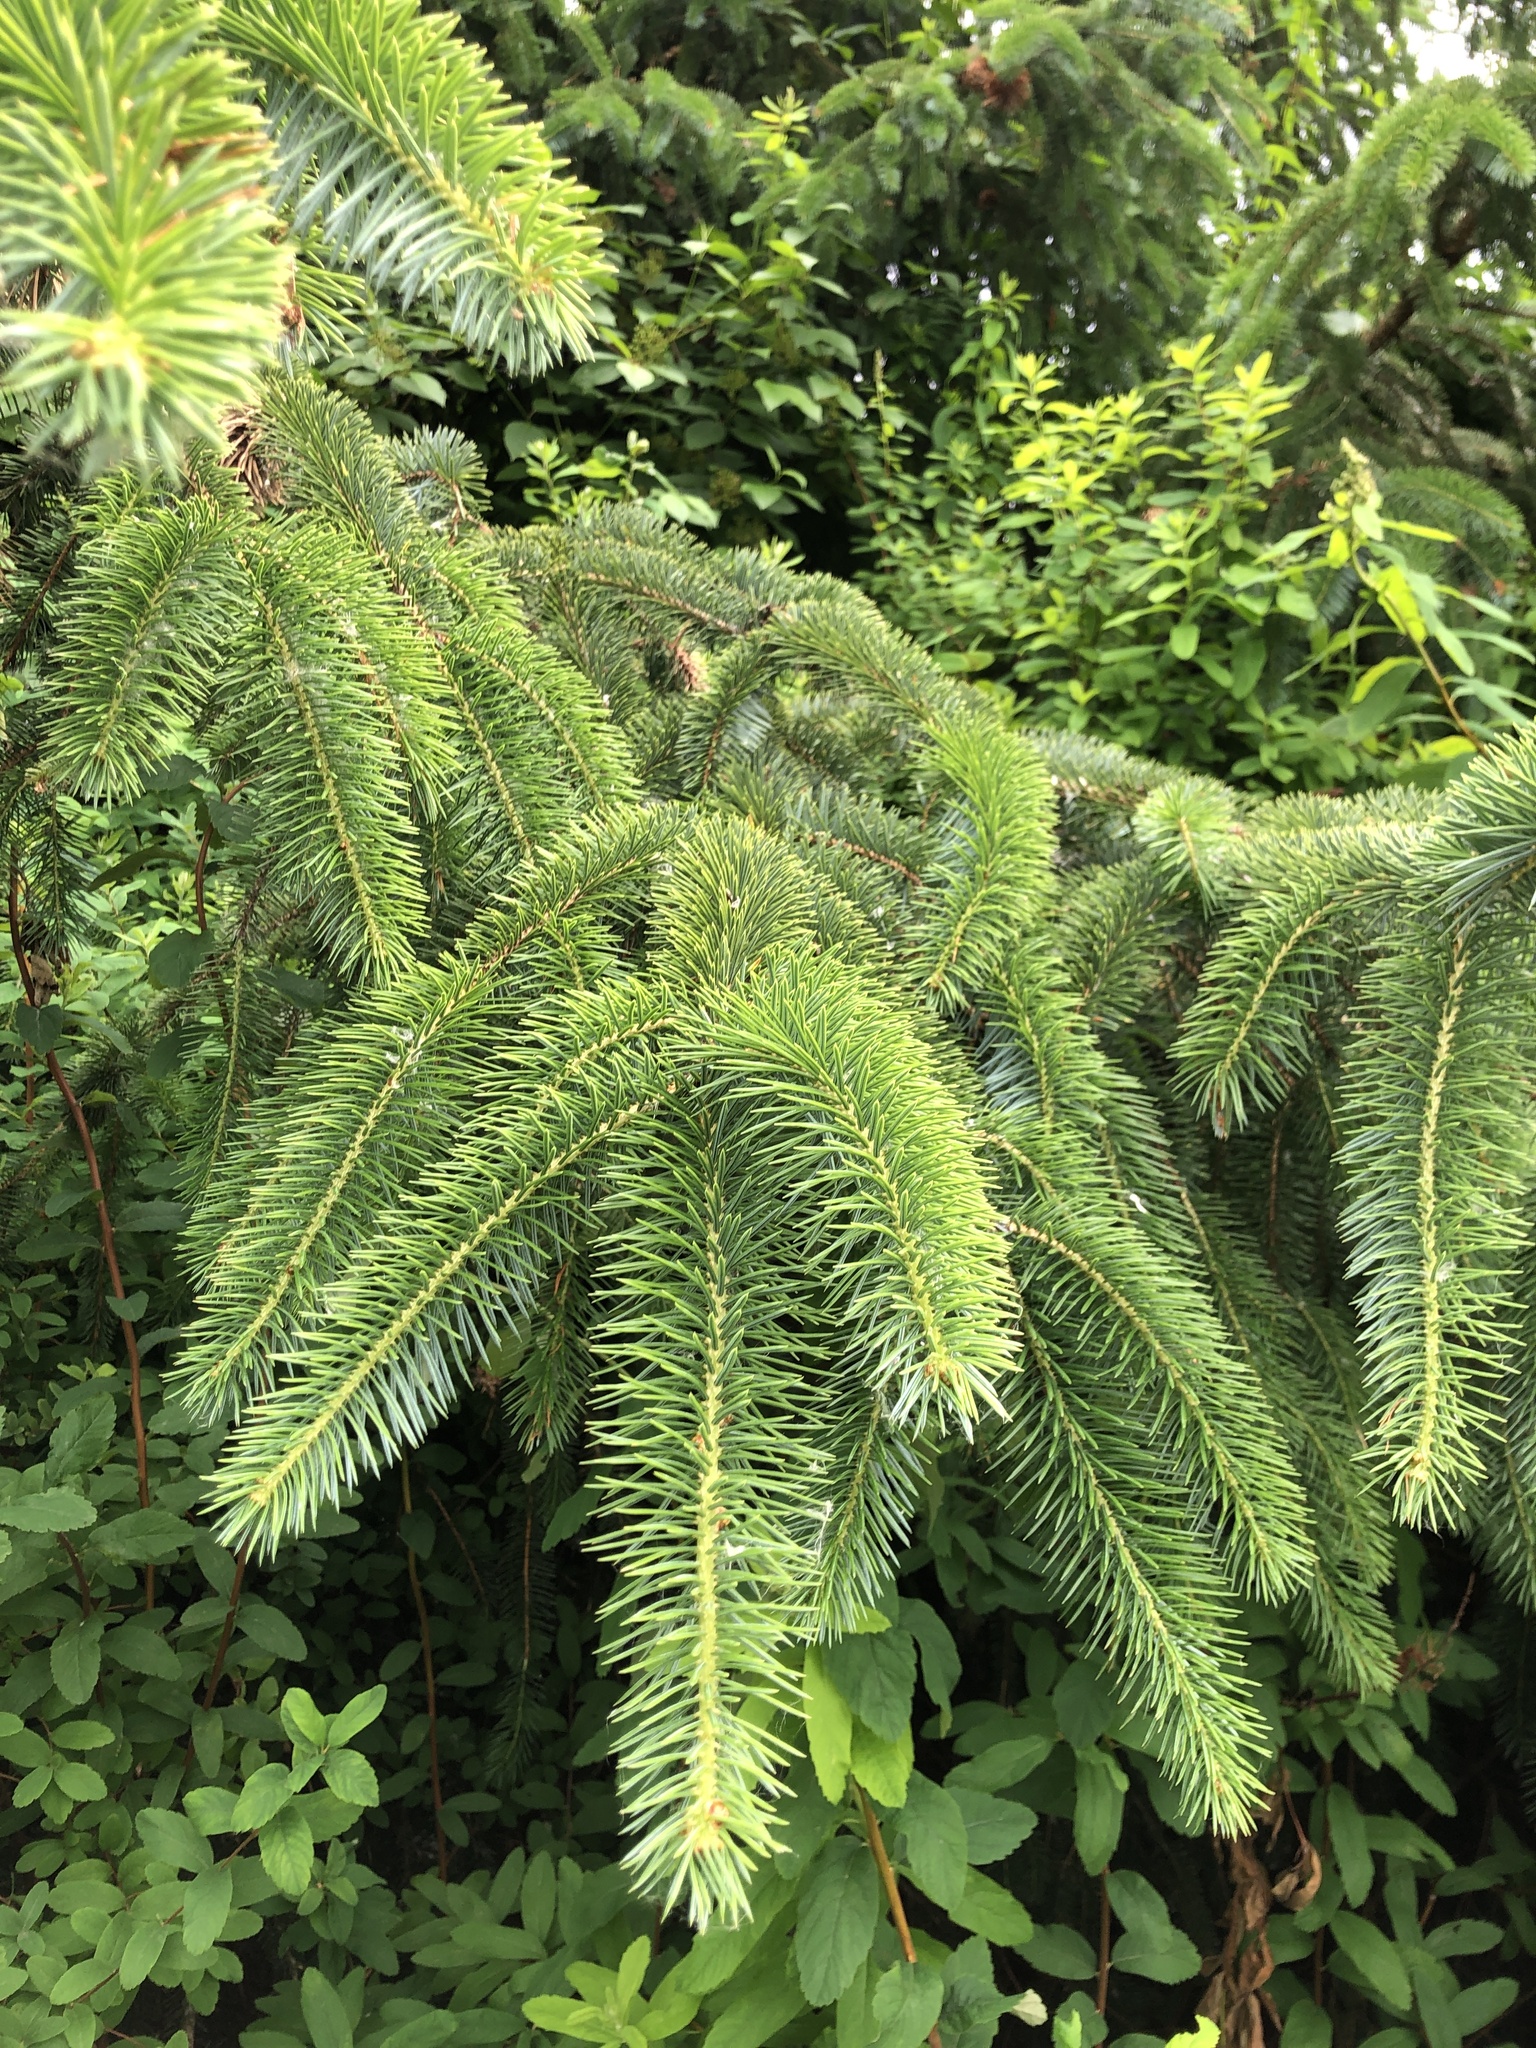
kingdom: Plantae
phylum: Tracheophyta
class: Pinopsida
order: Pinales
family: Pinaceae
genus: Picea
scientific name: Picea sitchensis
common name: Sitka spruce
